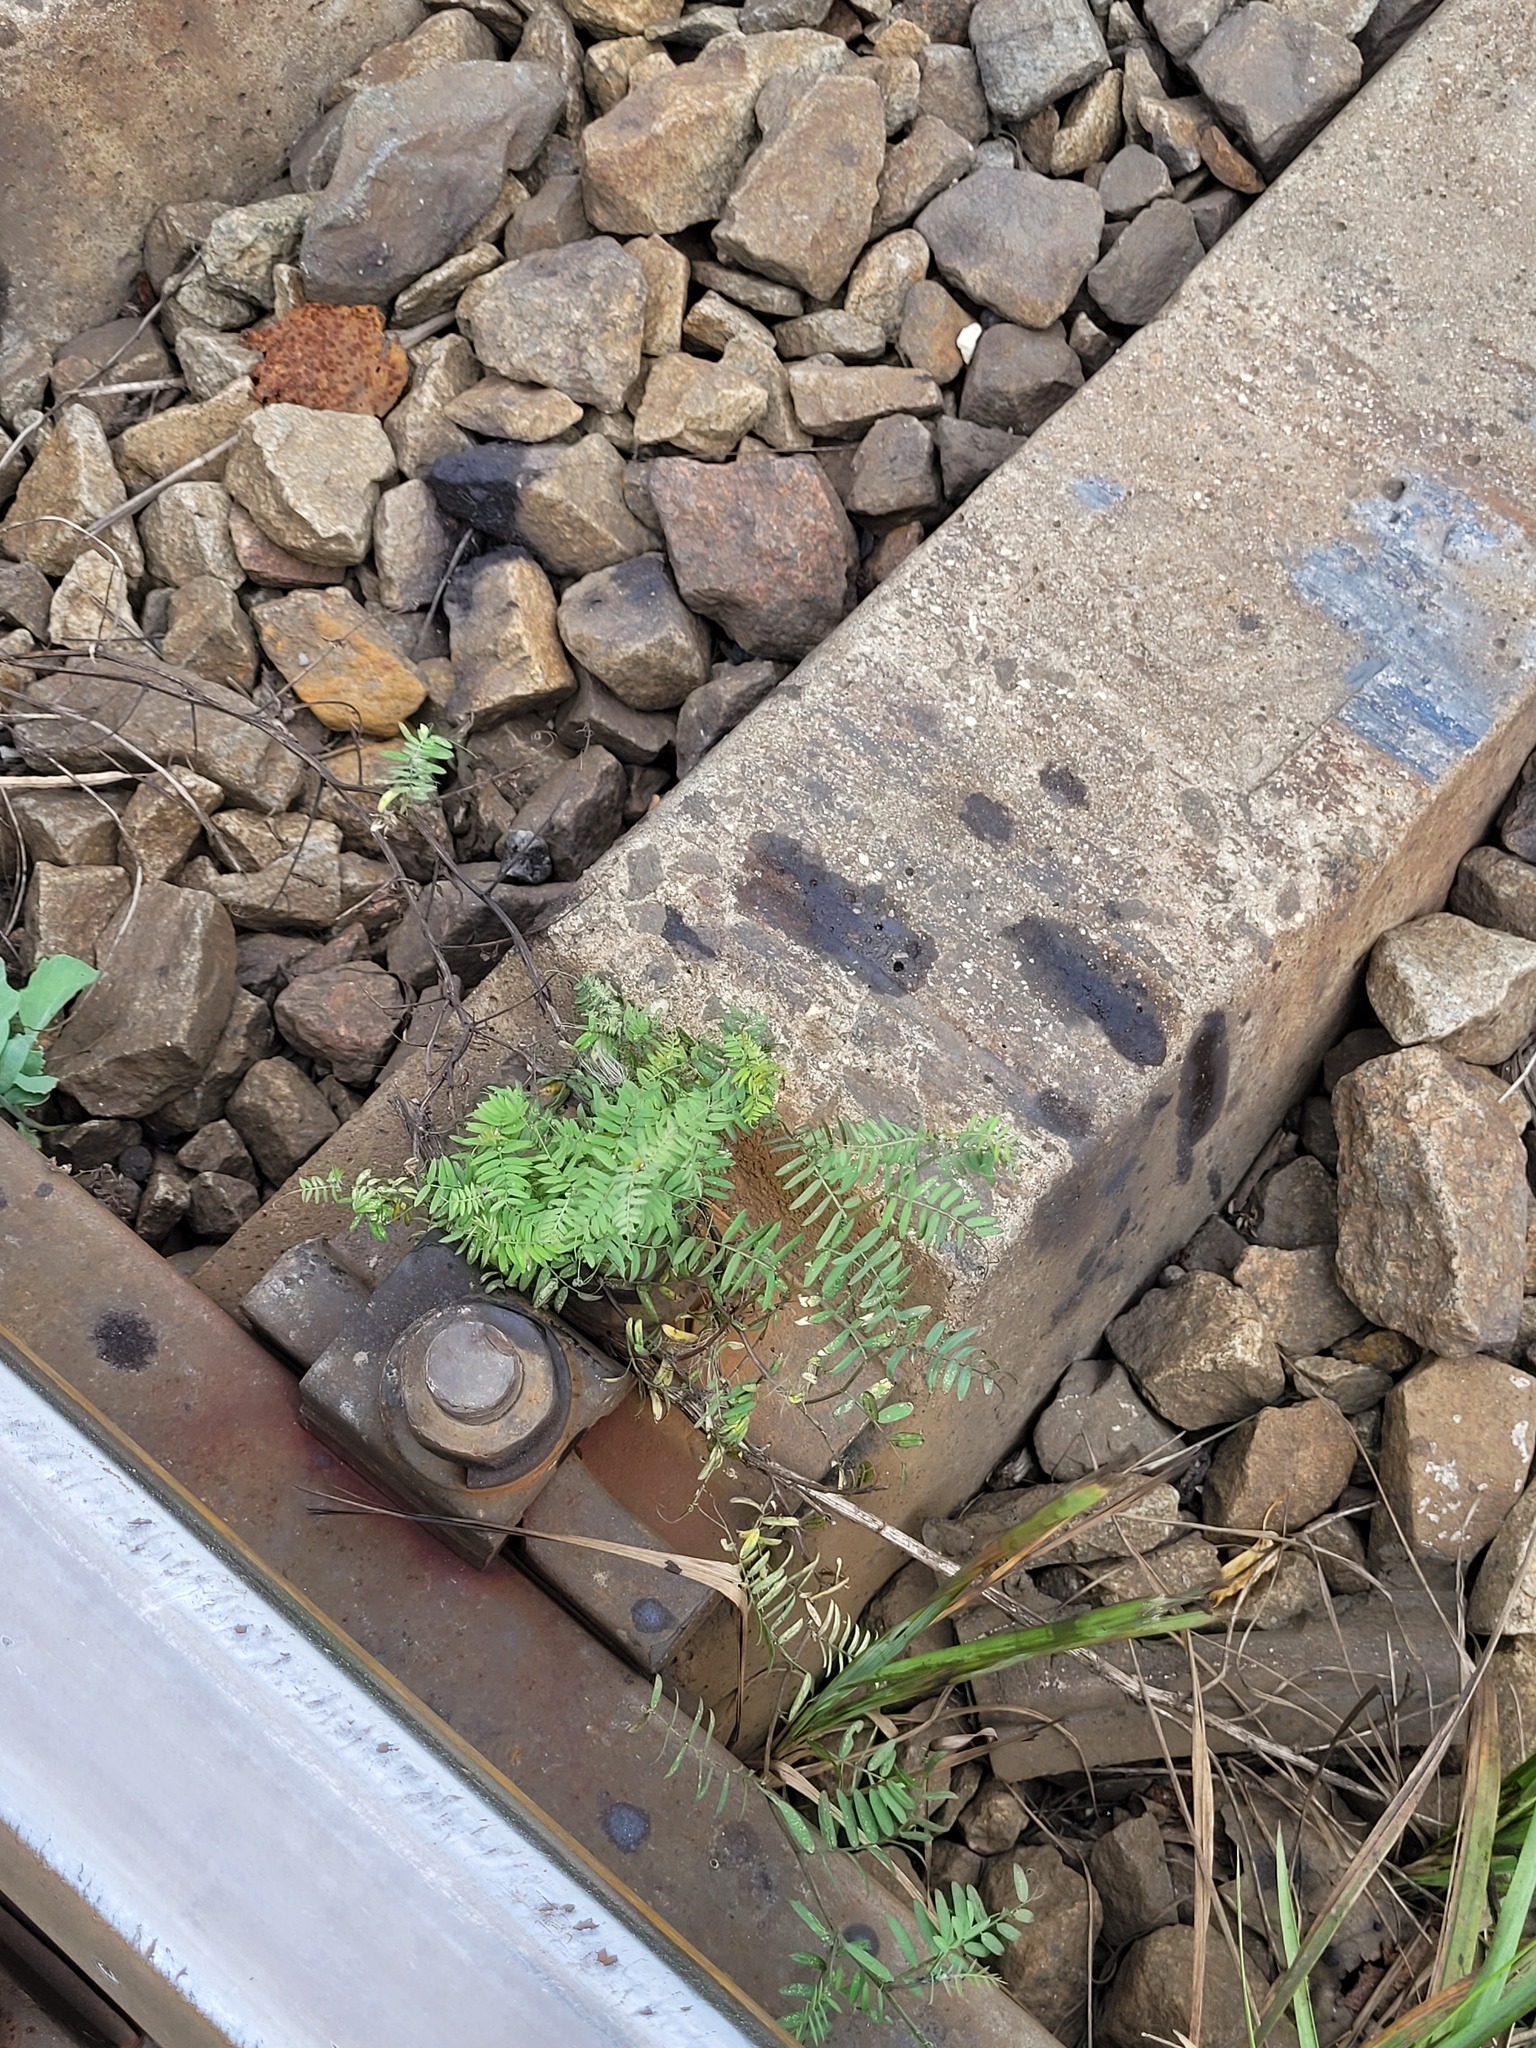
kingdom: Plantae
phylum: Tracheophyta
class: Magnoliopsida
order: Fabales
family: Fabaceae
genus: Vicia
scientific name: Vicia cracca
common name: Bird vetch
